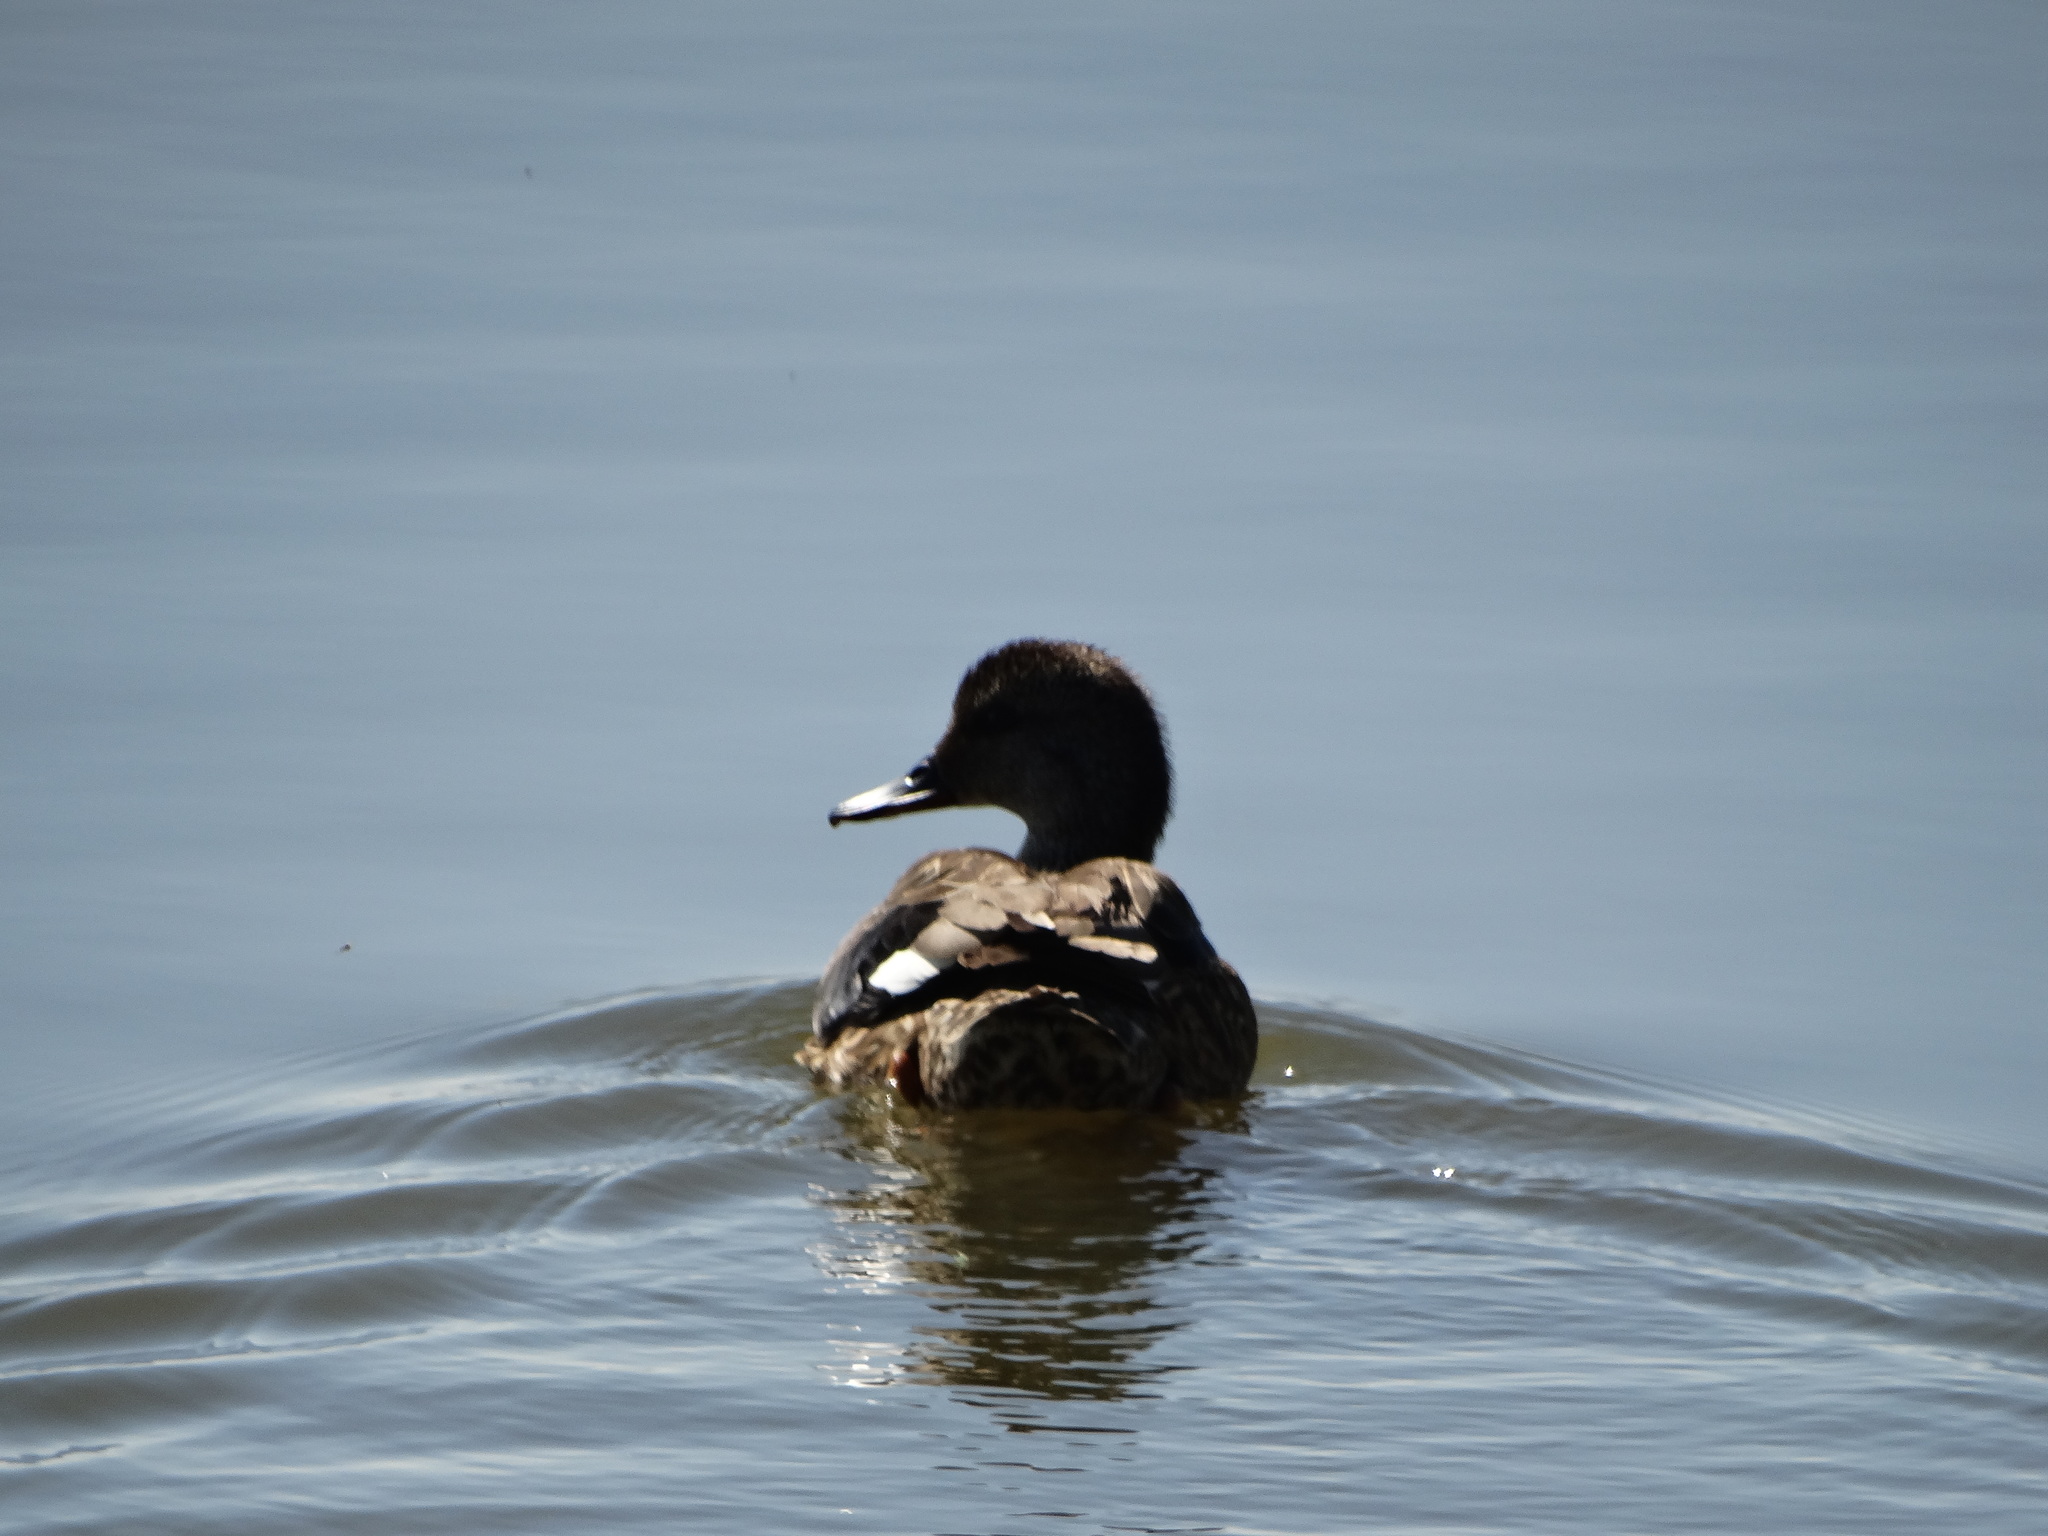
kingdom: Animalia
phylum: Chordata
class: Aves
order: Anseriformes
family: Anatidae
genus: Mareca
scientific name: Mareca strepera
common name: Gadwall
